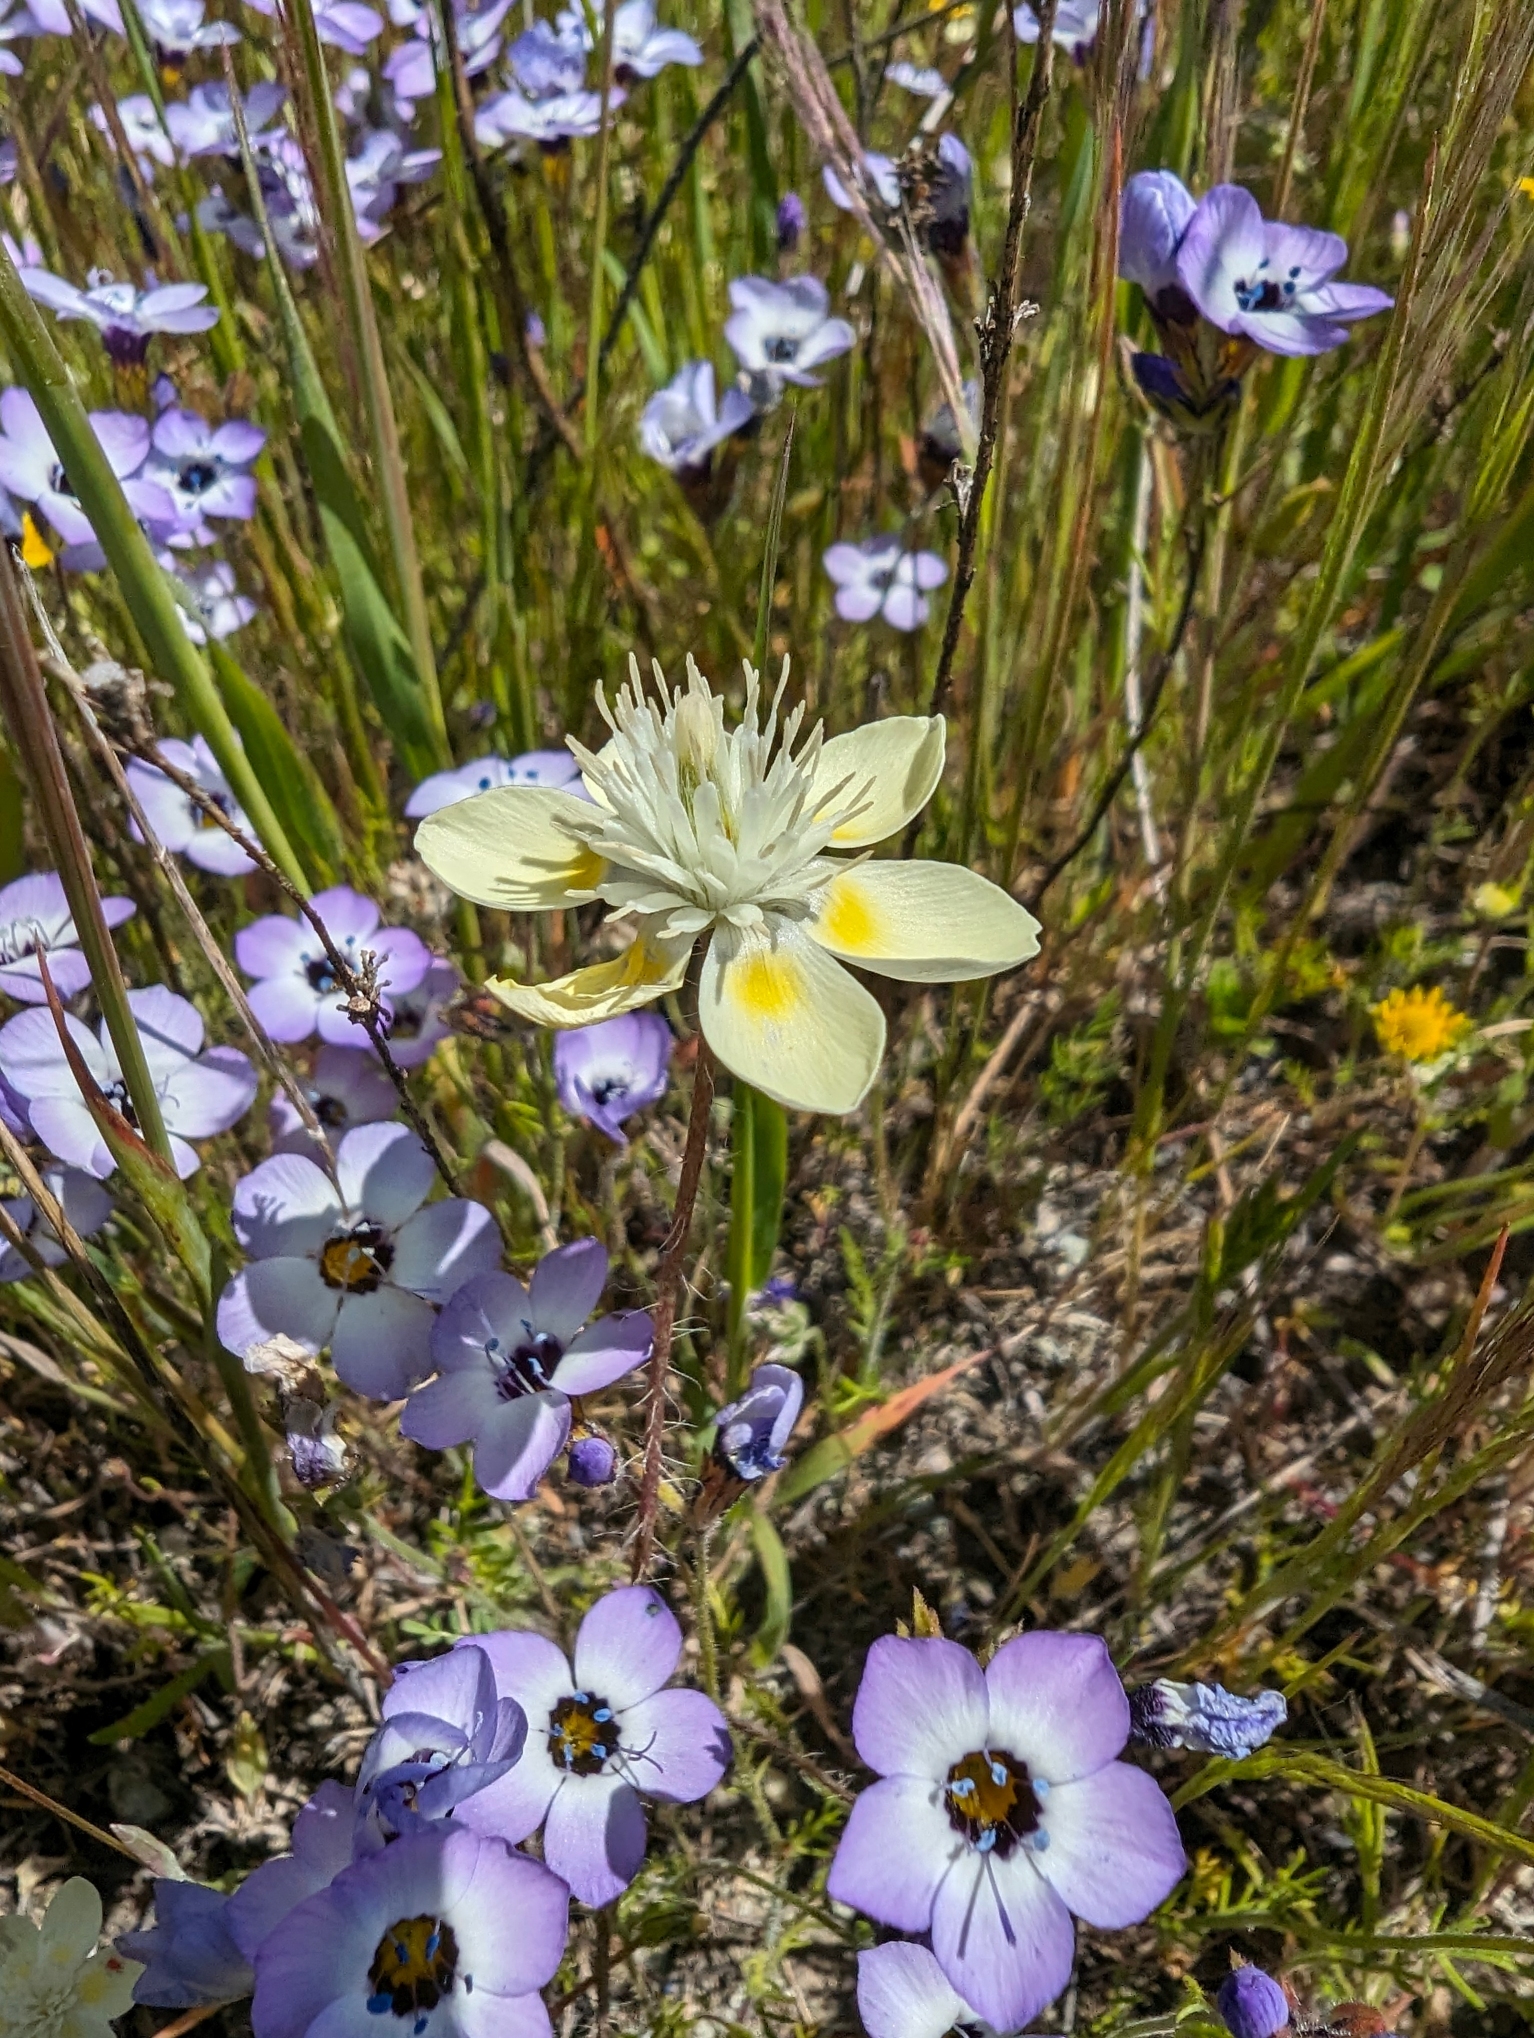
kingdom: Plantae
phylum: Tracheophyta
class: Magnoliopsida
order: Ranunculales
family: Papaveraceae
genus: Platystemon
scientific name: Platystemon californicus
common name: Cream-cups
